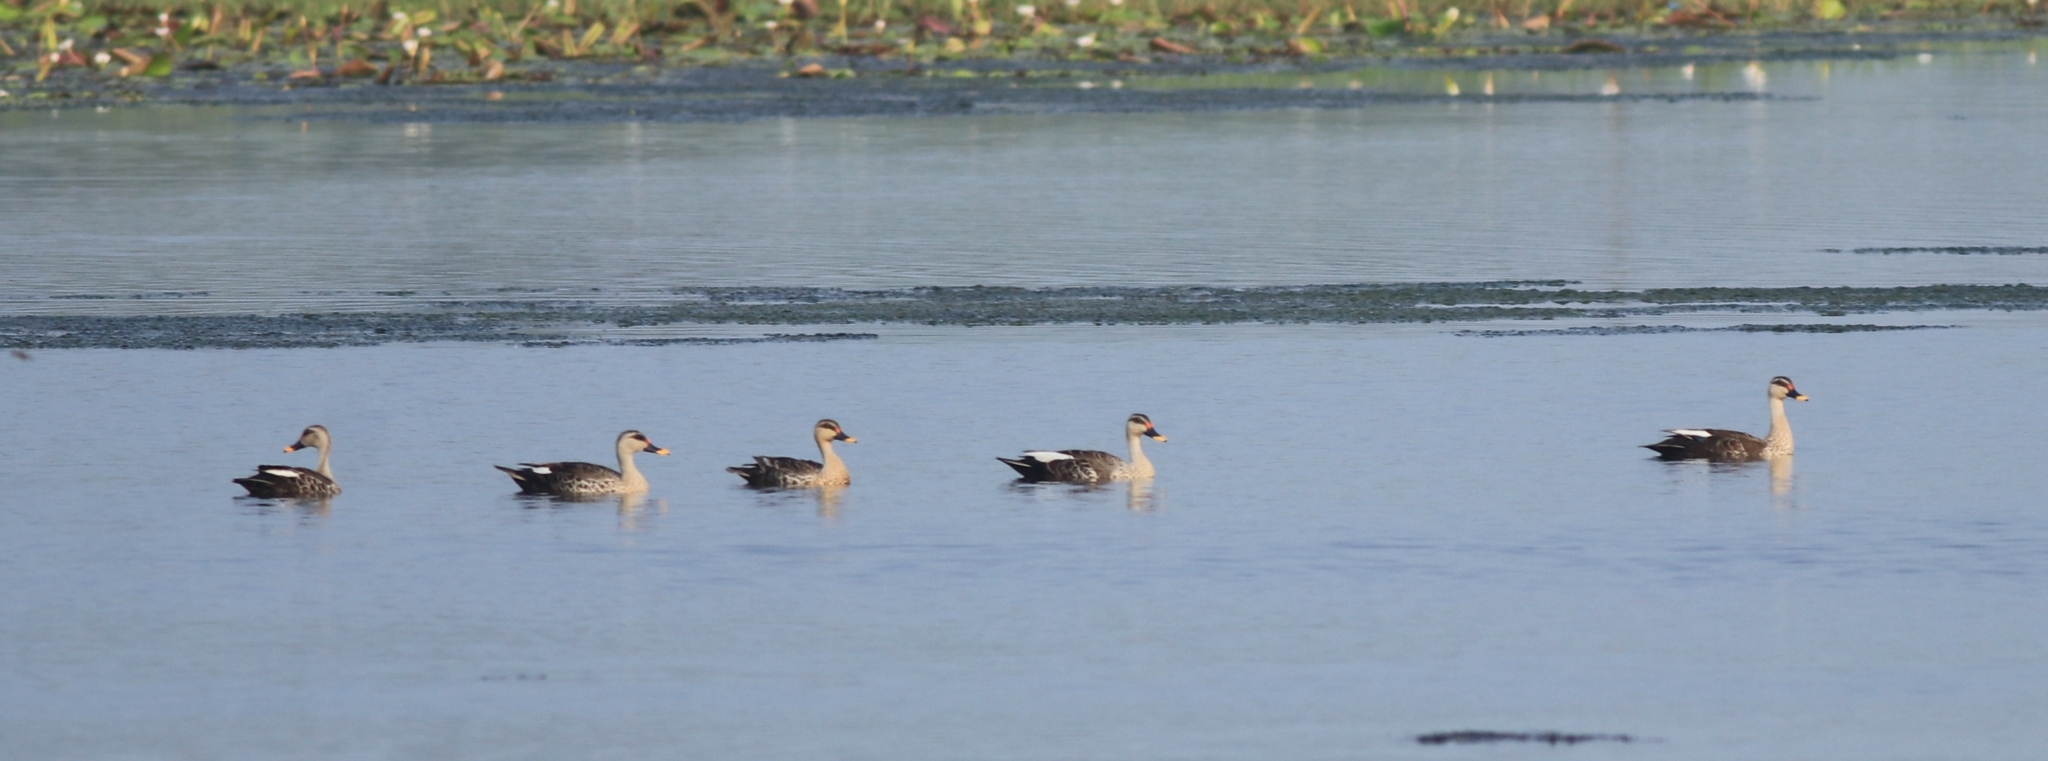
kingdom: Animalia
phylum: Chordata
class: Aves
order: Anseriformes
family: Anatidae
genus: Anas
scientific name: Anas poecilorhyncha
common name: Indian spot-billed duck
